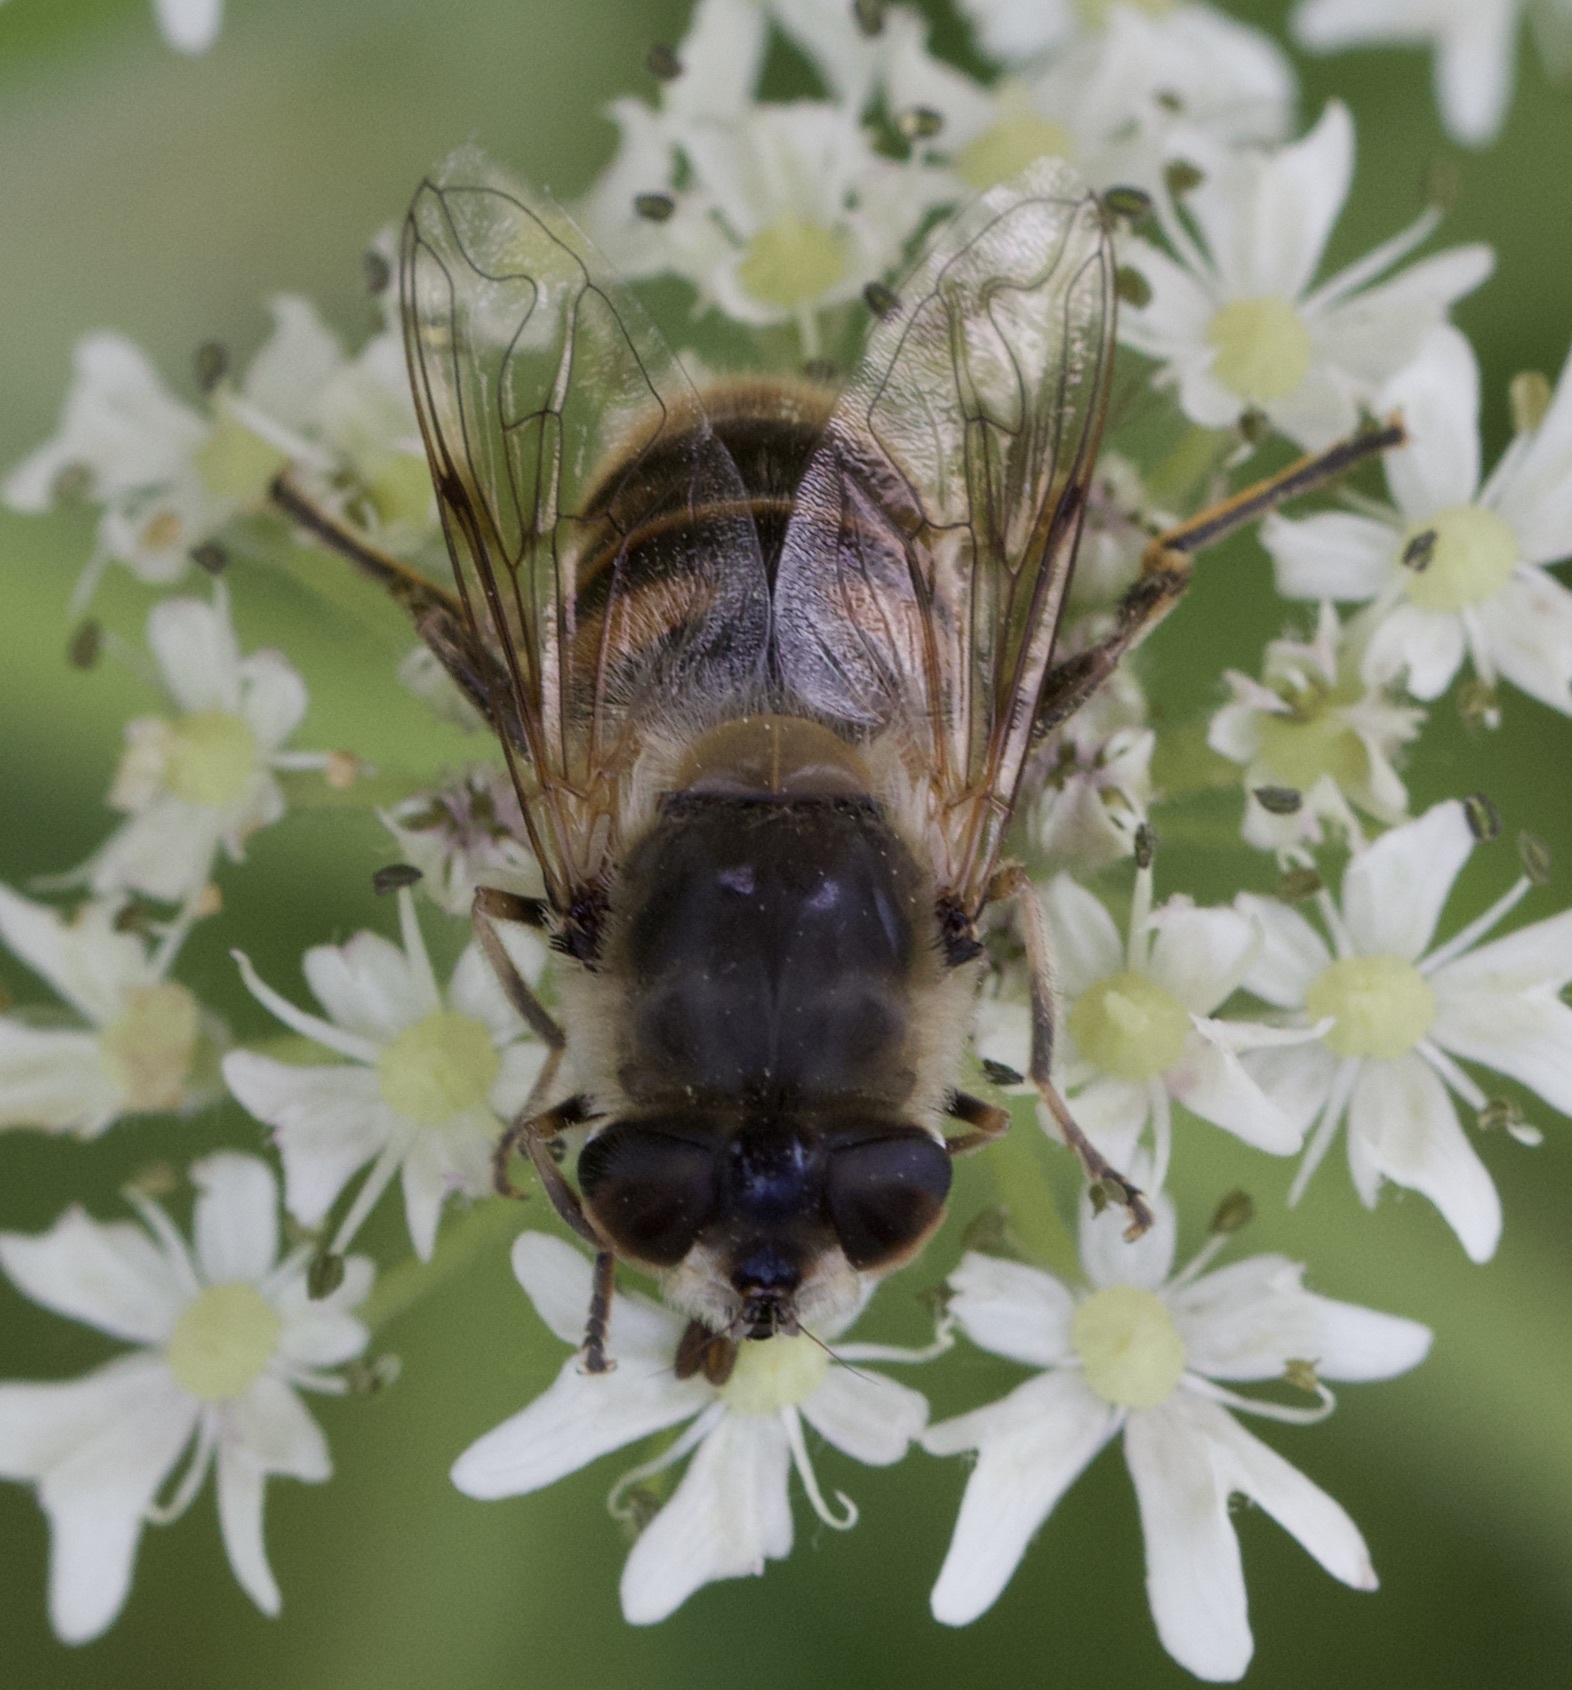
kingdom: Animalia
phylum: Arthropoda
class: Insecta
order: Diptera
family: Syrphidae
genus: Eristalis
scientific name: Eristalis tenax
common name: Drone fly
